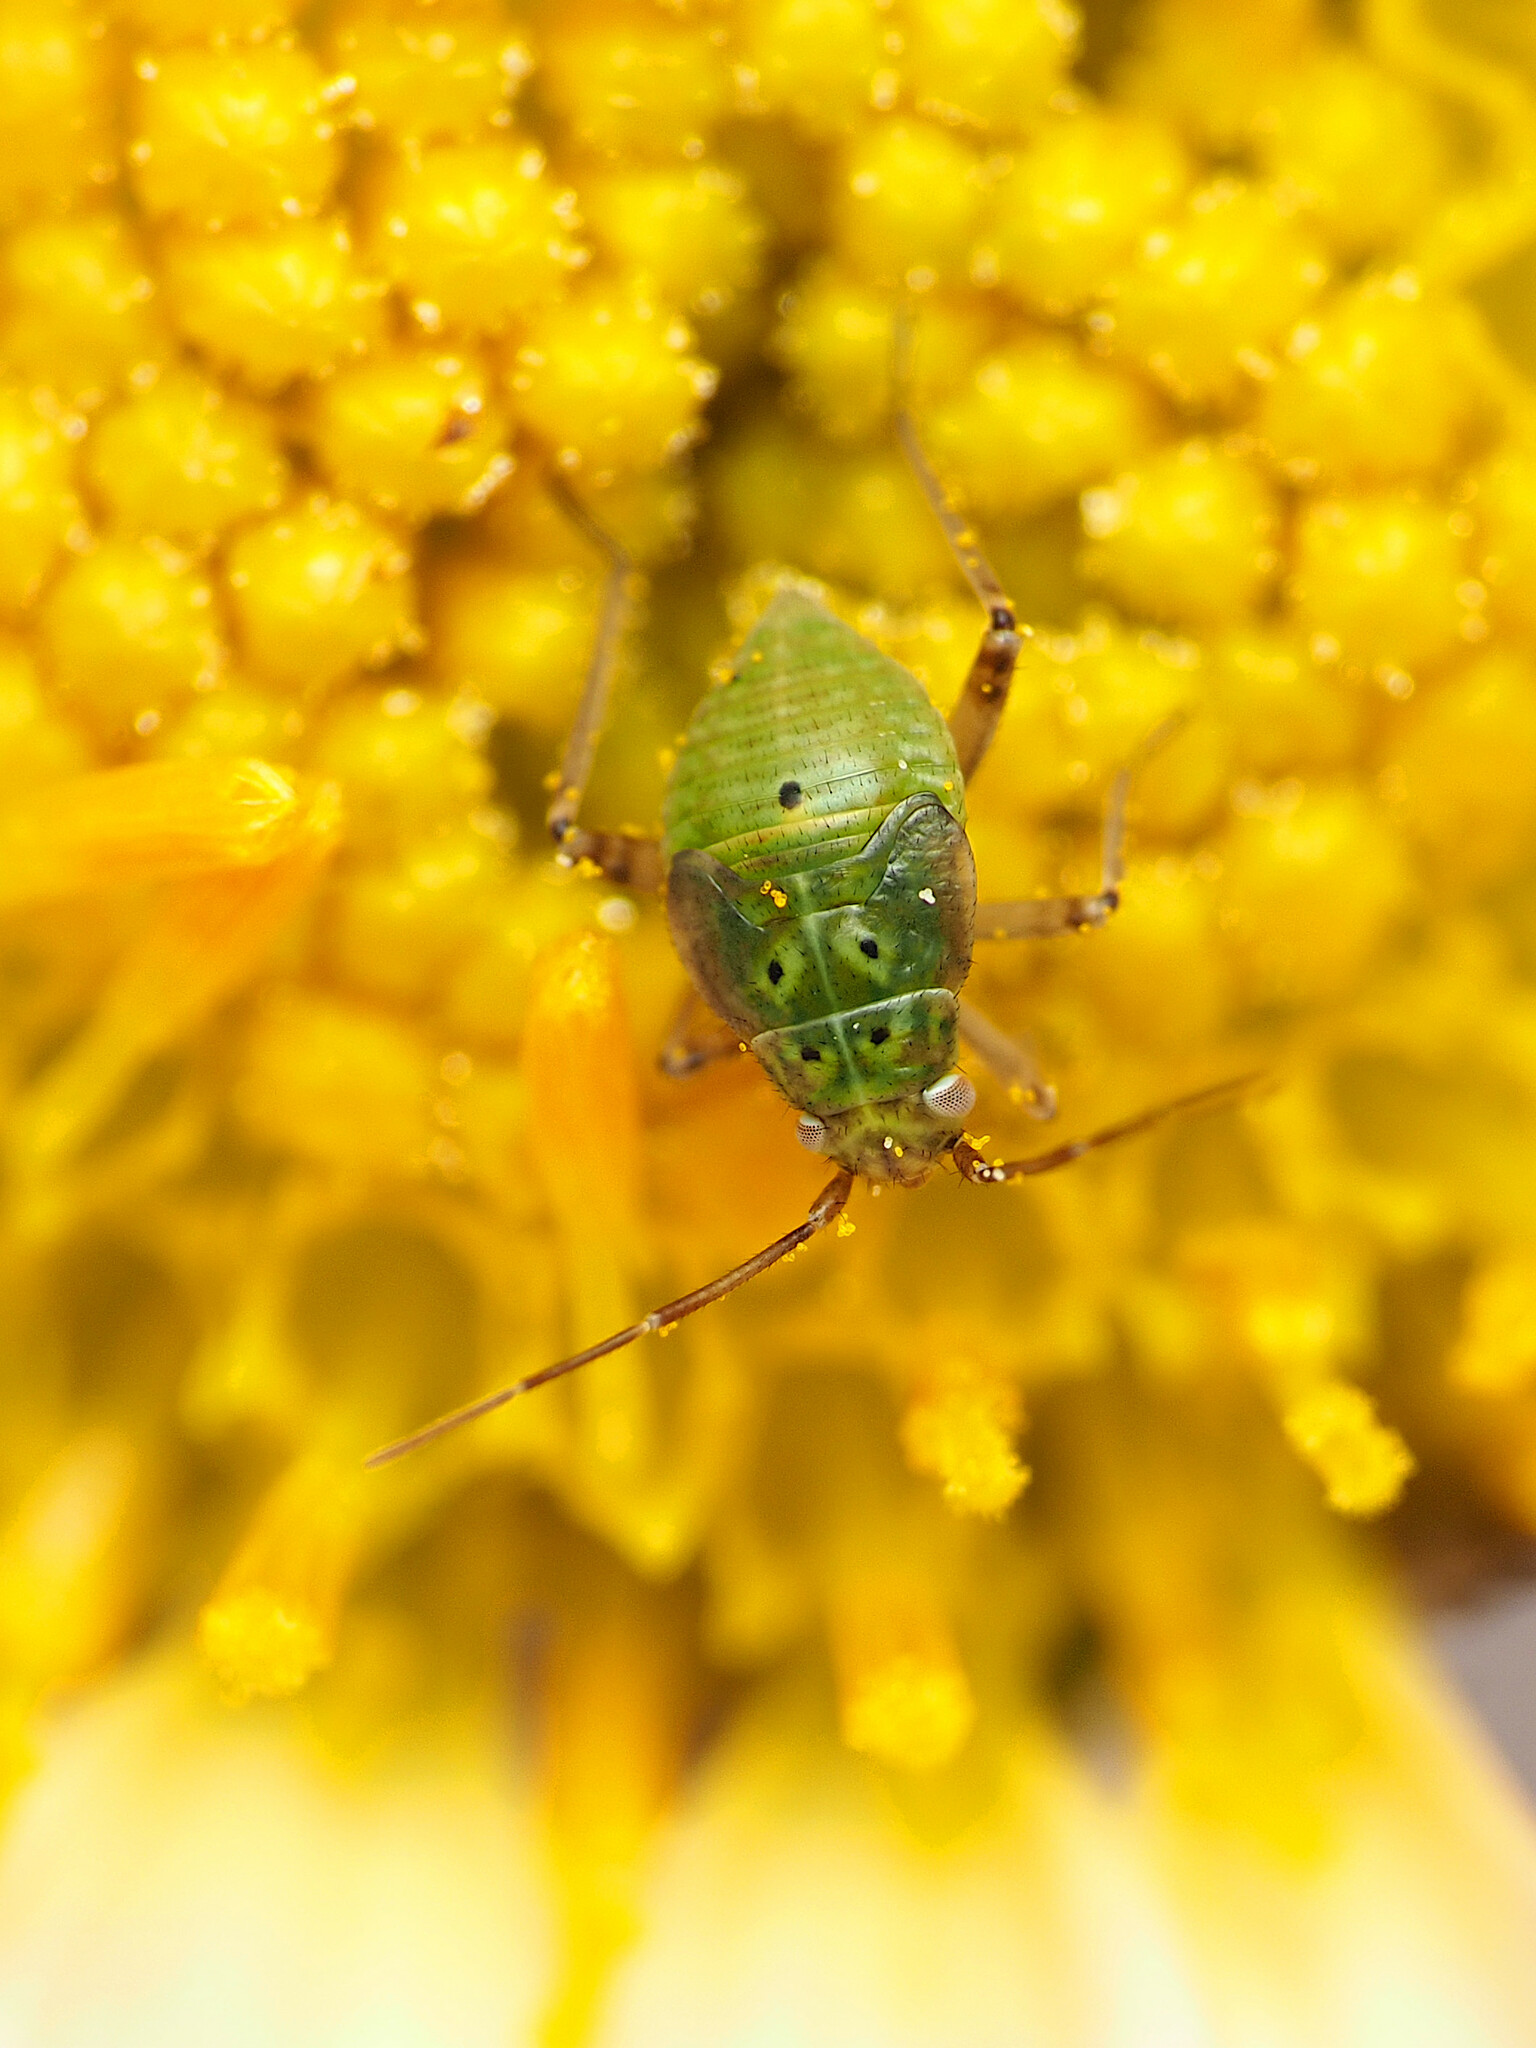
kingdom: Animalia
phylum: Arthropoda
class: Insecta
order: Hemiptera
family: Miridae
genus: Lygus
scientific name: Lygus lineolaris
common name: North american tarnished plant bug
